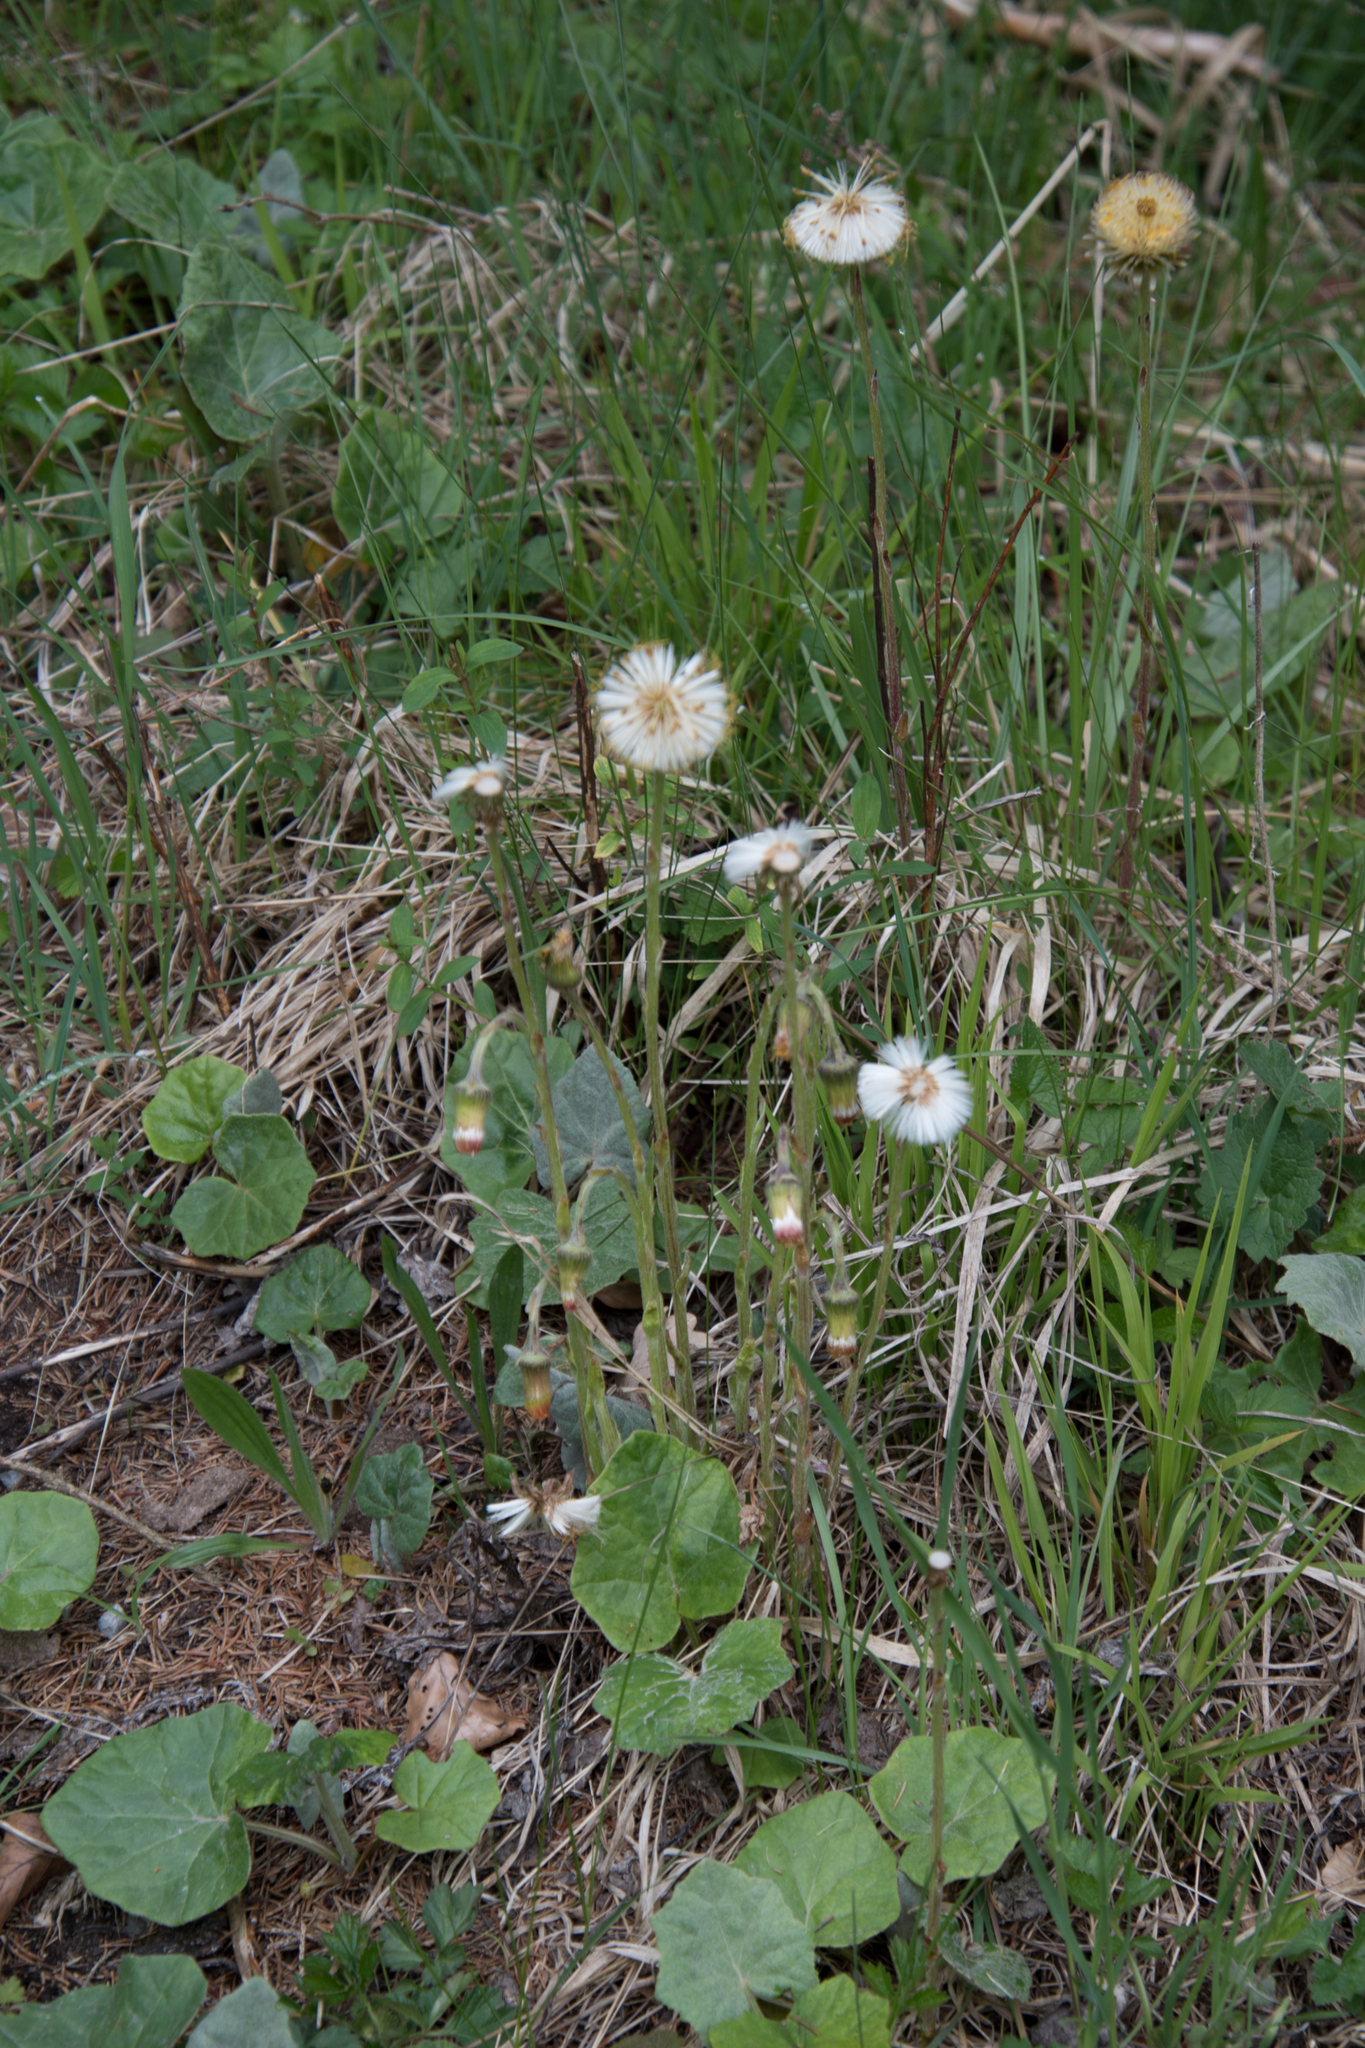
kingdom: Plantae
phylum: Tracheophyta
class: Magnoliopsida
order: Asterales
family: Asteraceae
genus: Tussilago
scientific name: Tussilago farfara
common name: Coltsfoot
